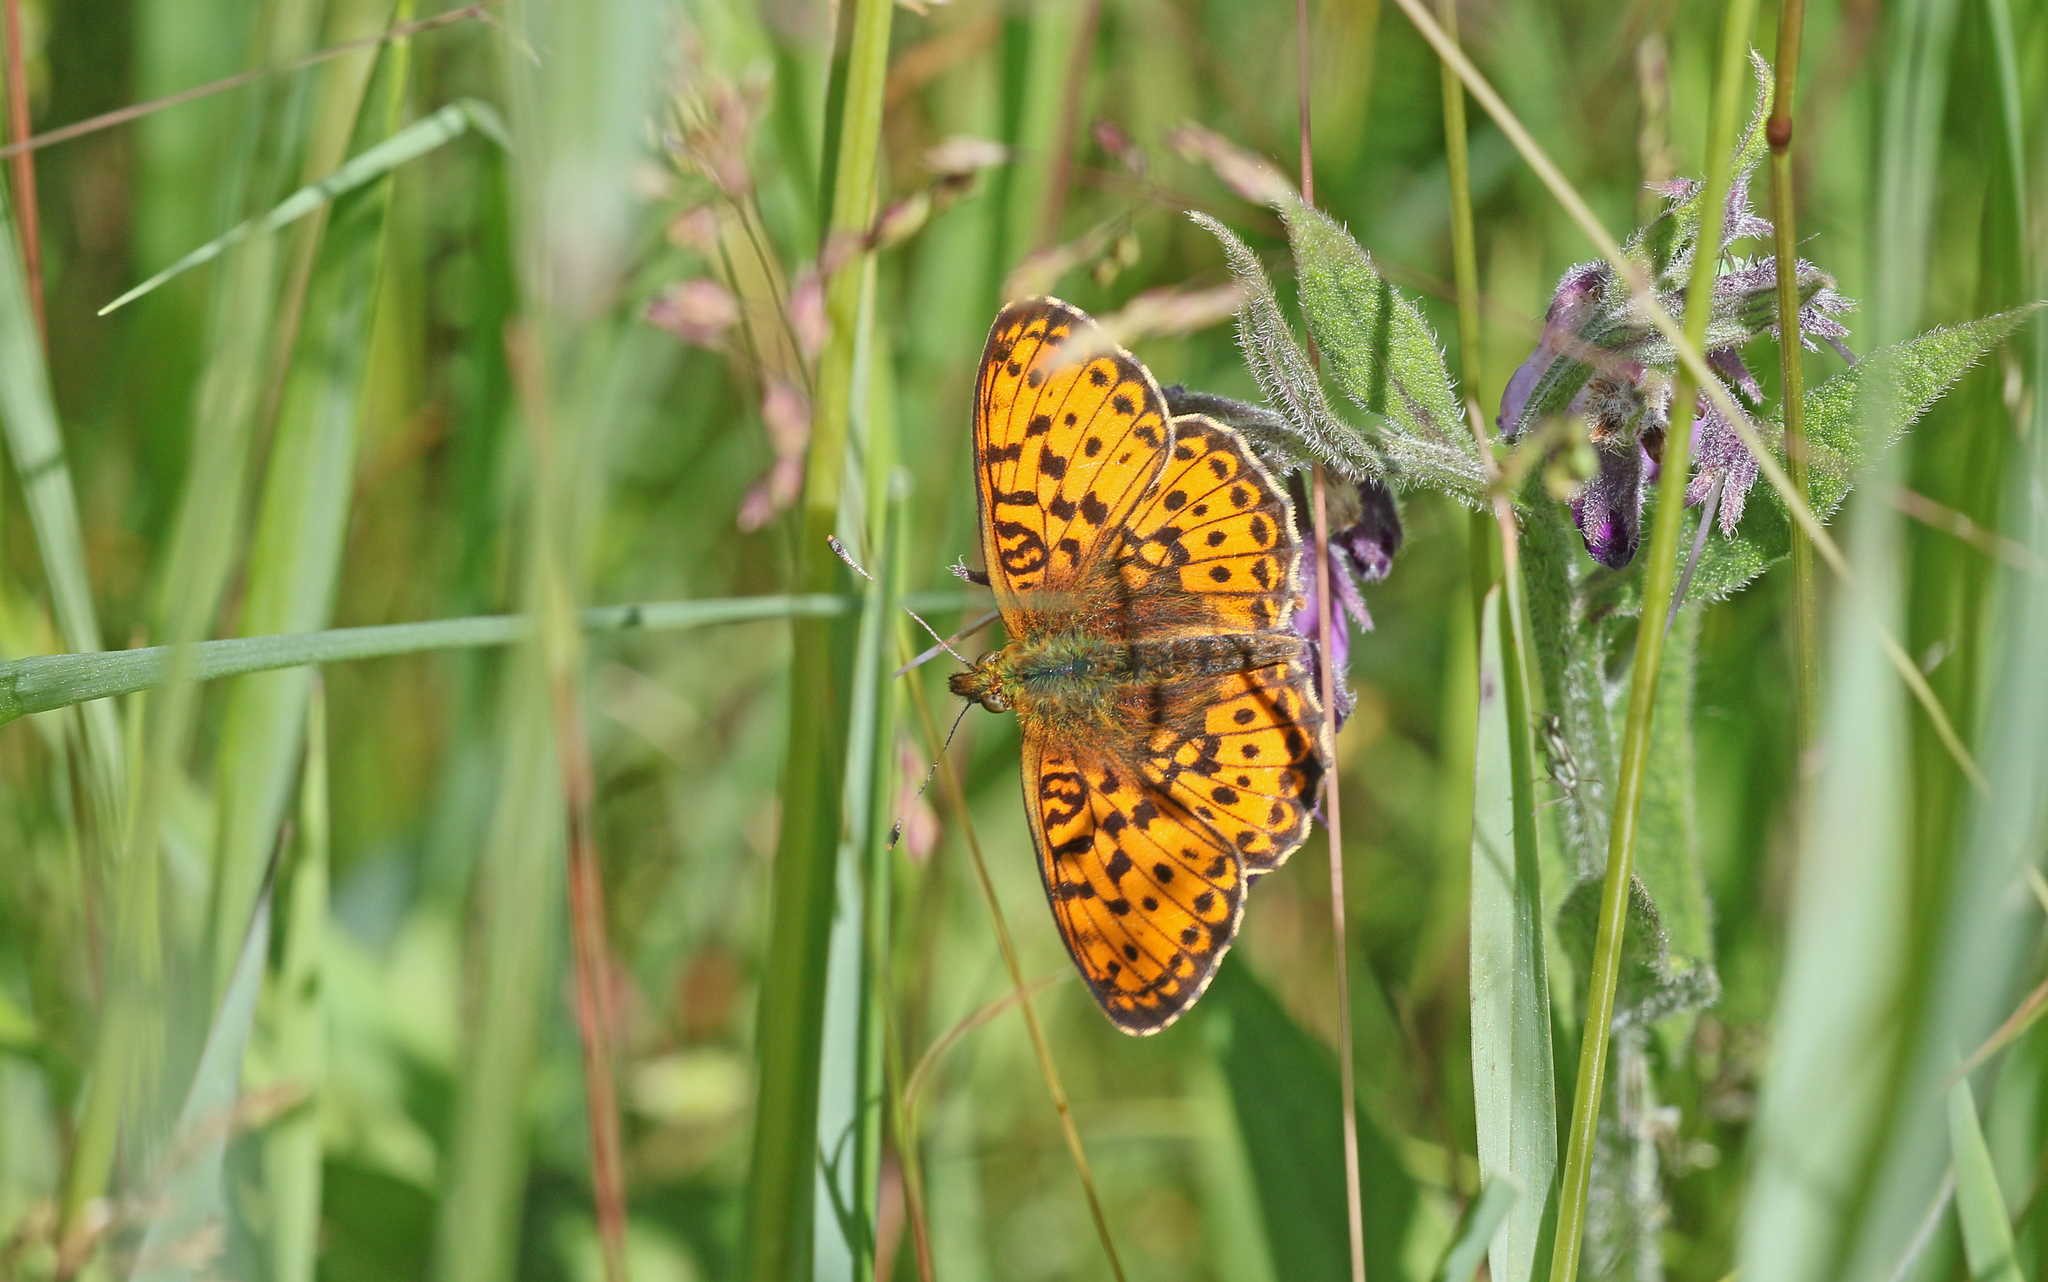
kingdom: Animalia
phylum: Arthropoda
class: Insecta
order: Lepidoptera
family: Nymphalidae
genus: Brenthis
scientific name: Brenthis ino
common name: Lesser marbled fritillary
